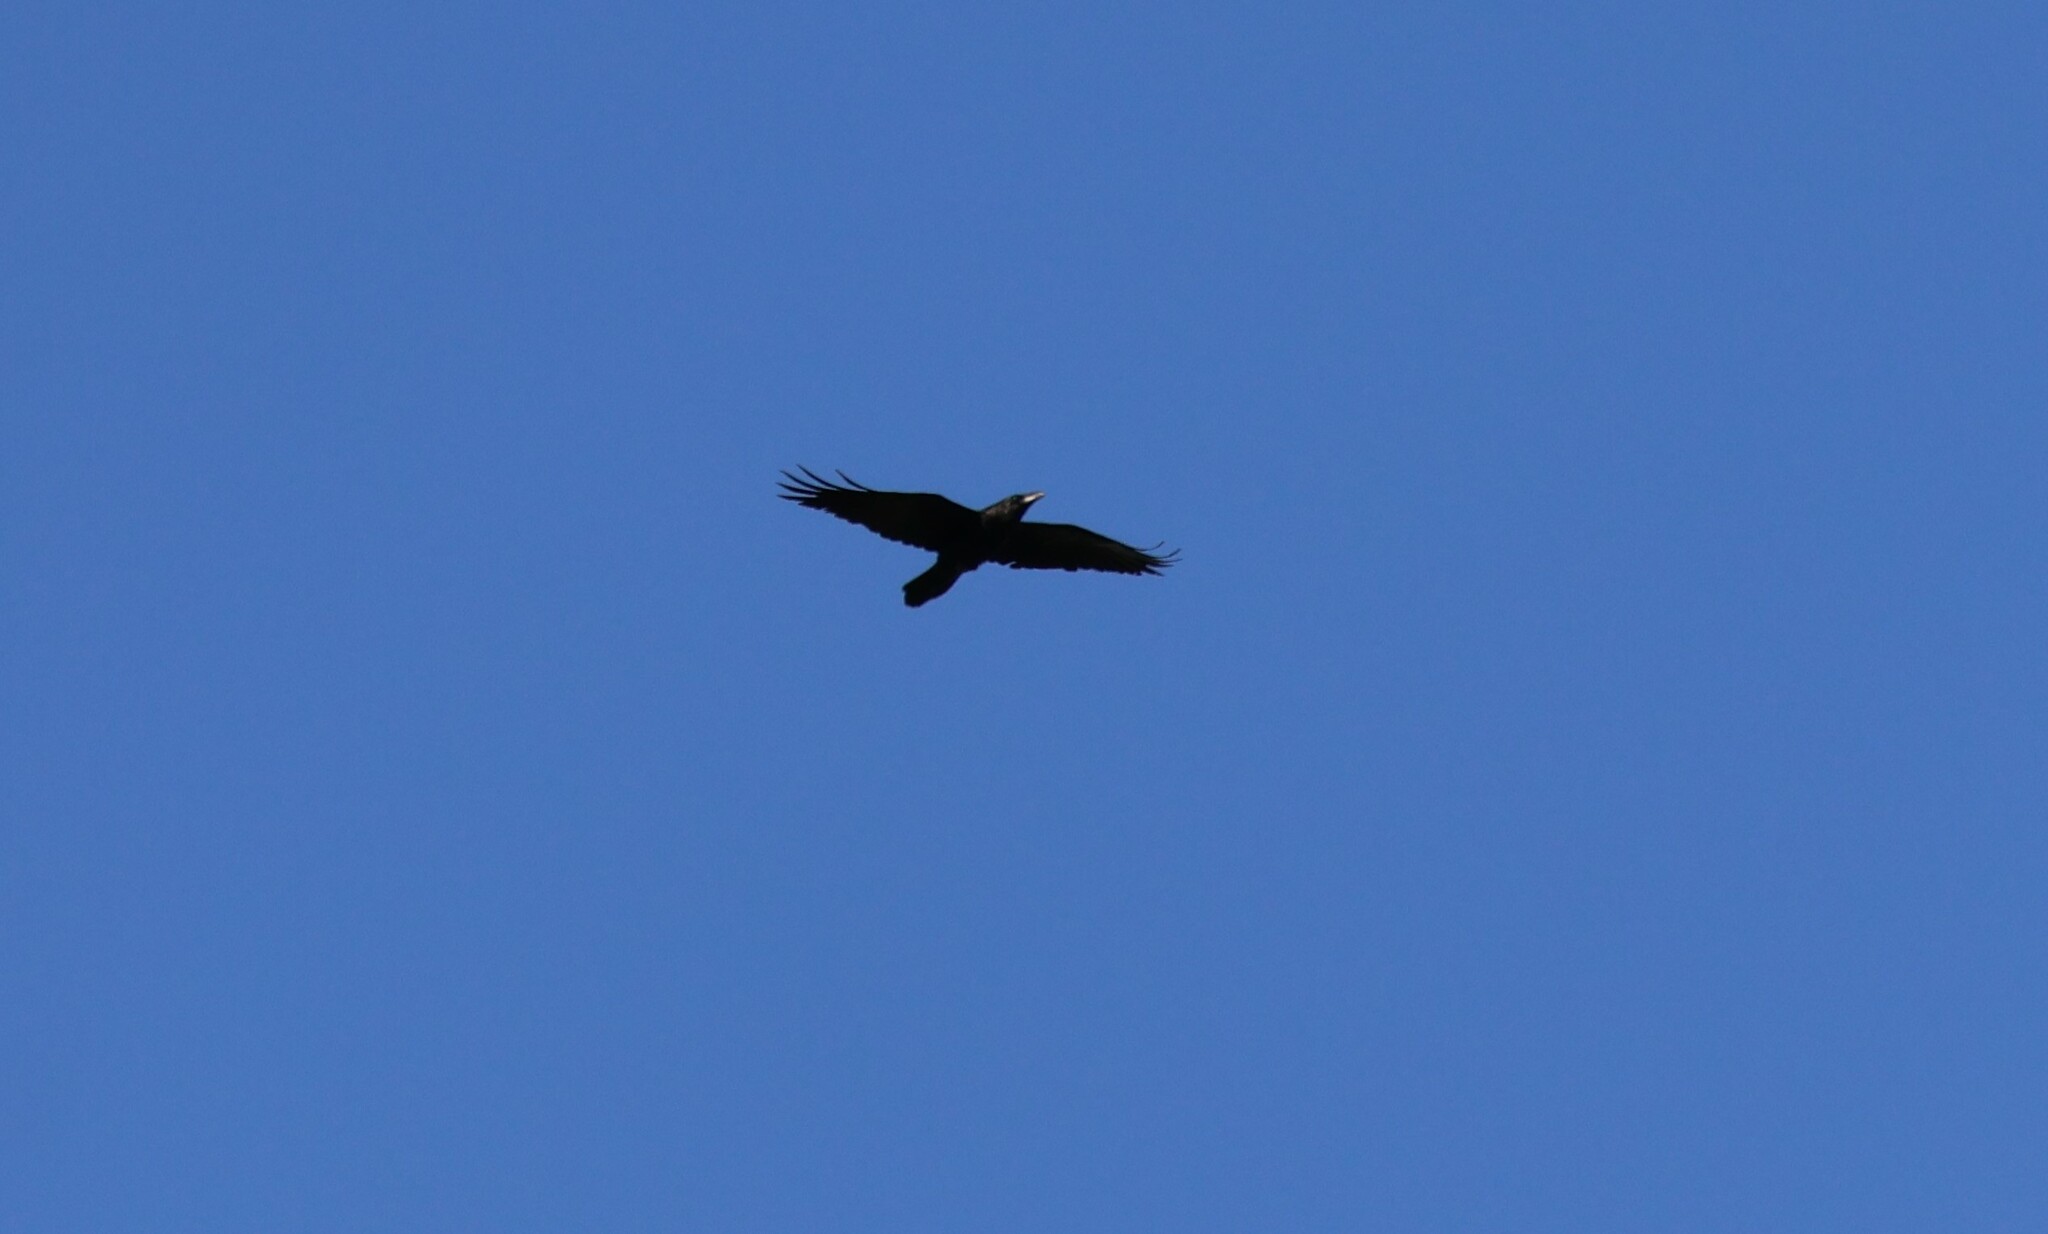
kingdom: Animalia
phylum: Chordata
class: Aves
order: Passeriformes
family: Corvidae
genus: Corvus
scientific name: Corvus corax
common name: Common raven
